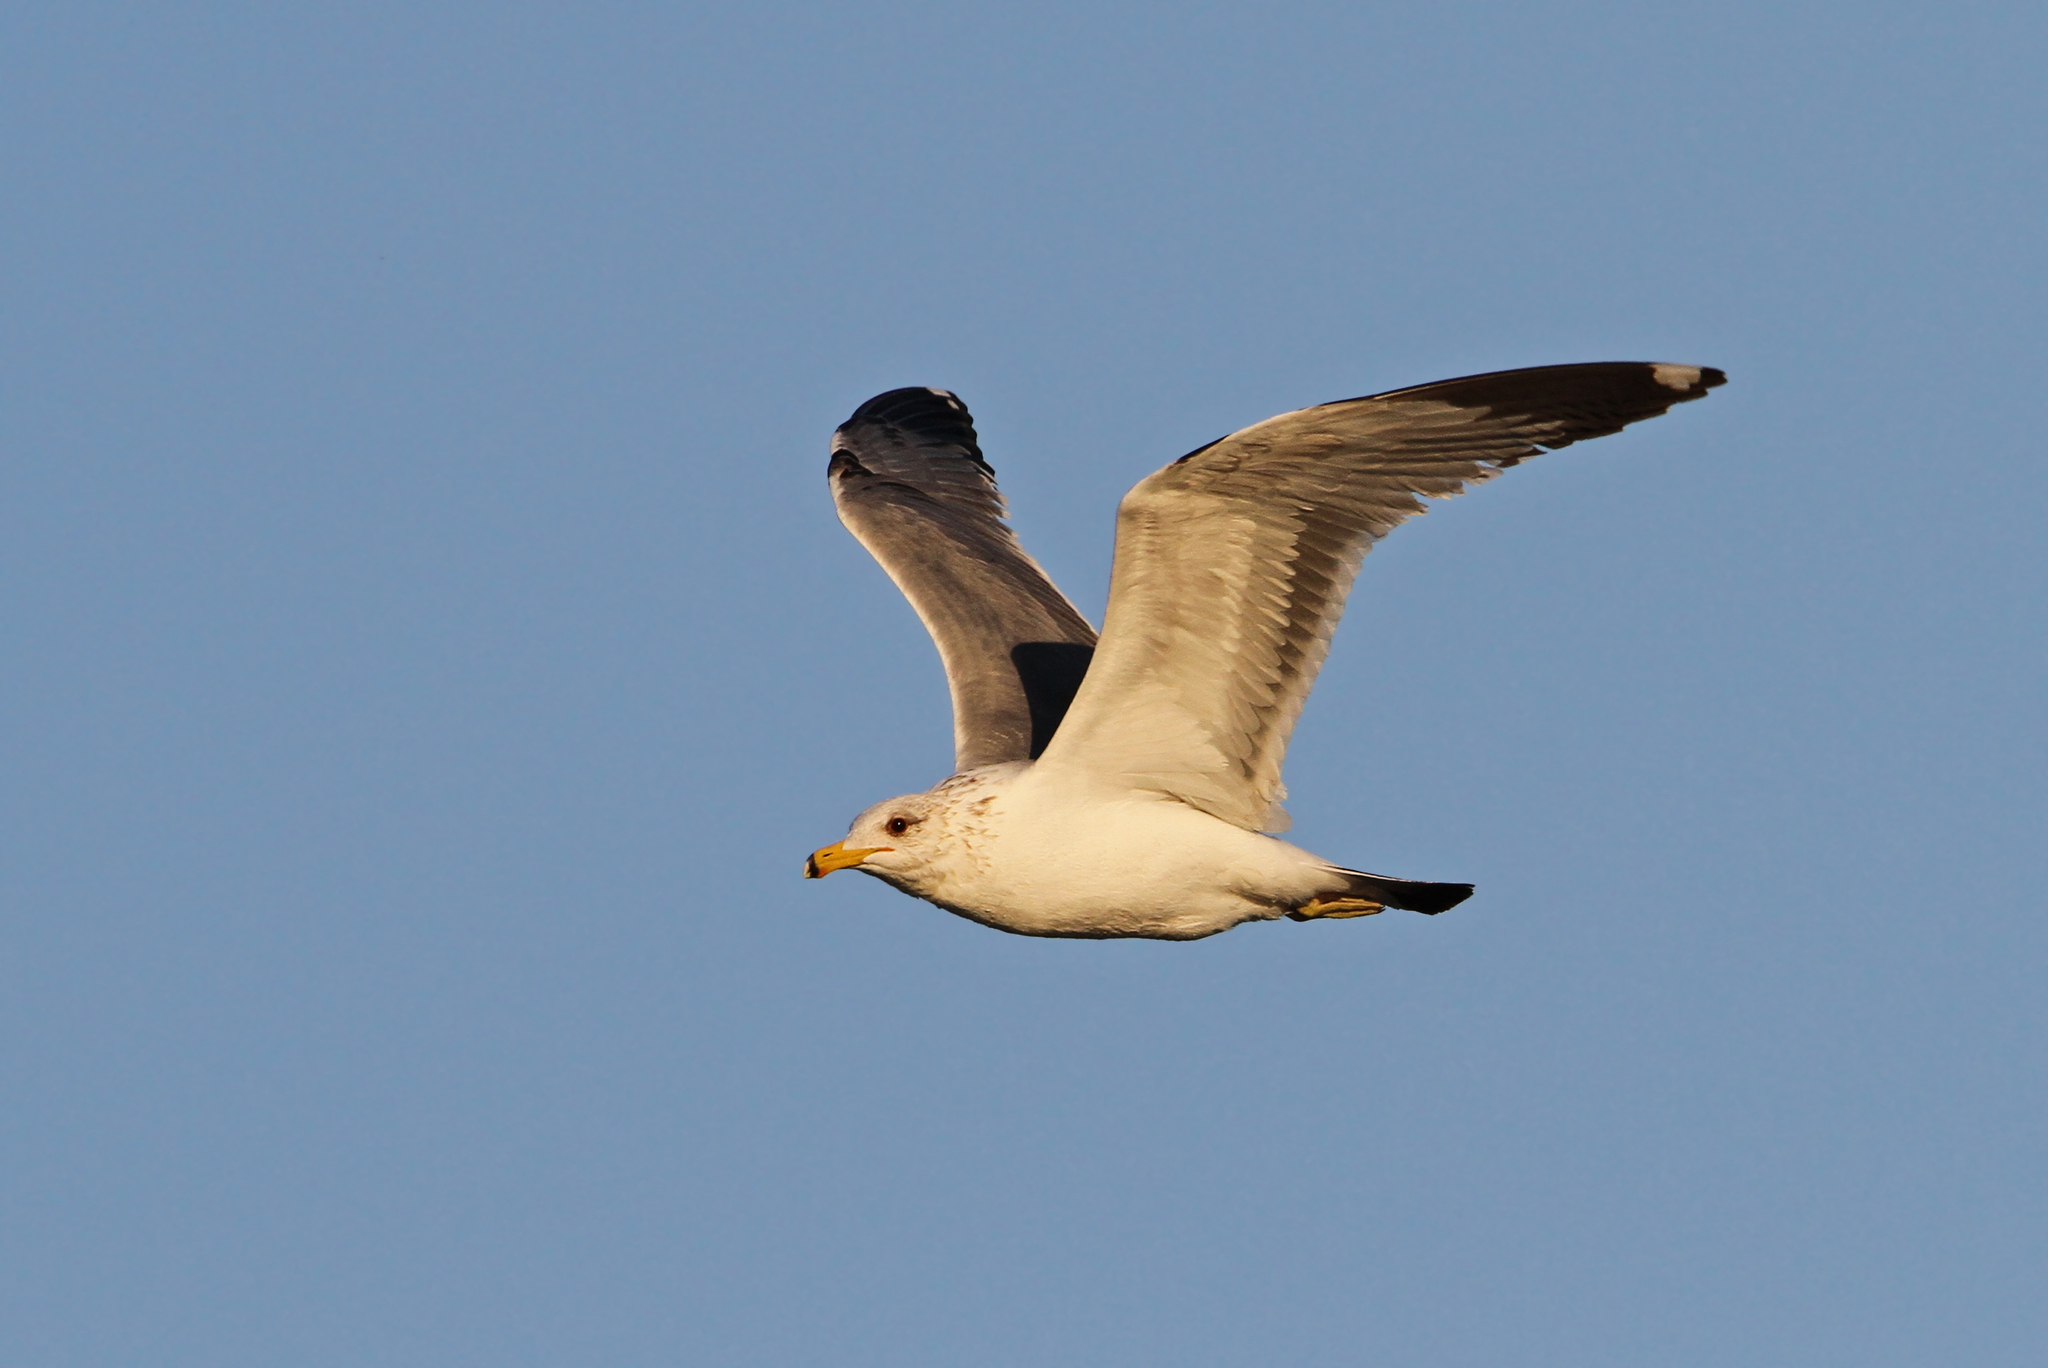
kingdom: Animalia
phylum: Chordata
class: Aves
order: Charadriiformes
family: Laridae
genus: Larus
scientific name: Larus californicus
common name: California gull
